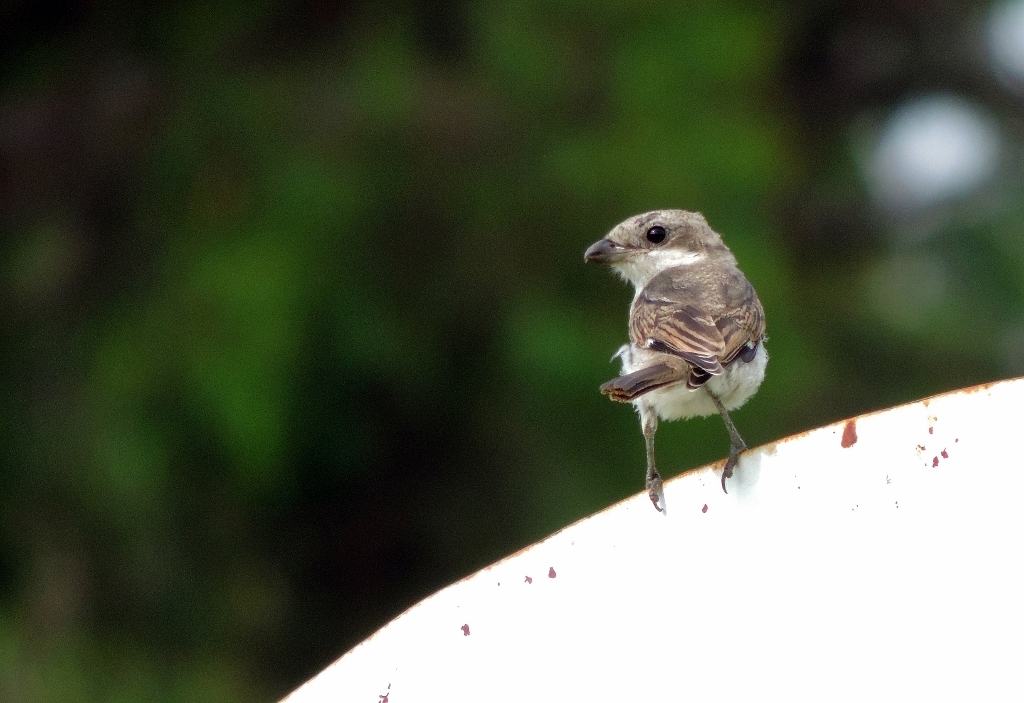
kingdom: Animalia
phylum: Chordata
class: Aves
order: Passeriformes
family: Laniidae
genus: Lanius
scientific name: Lanius collaris
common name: Southern fiscal
